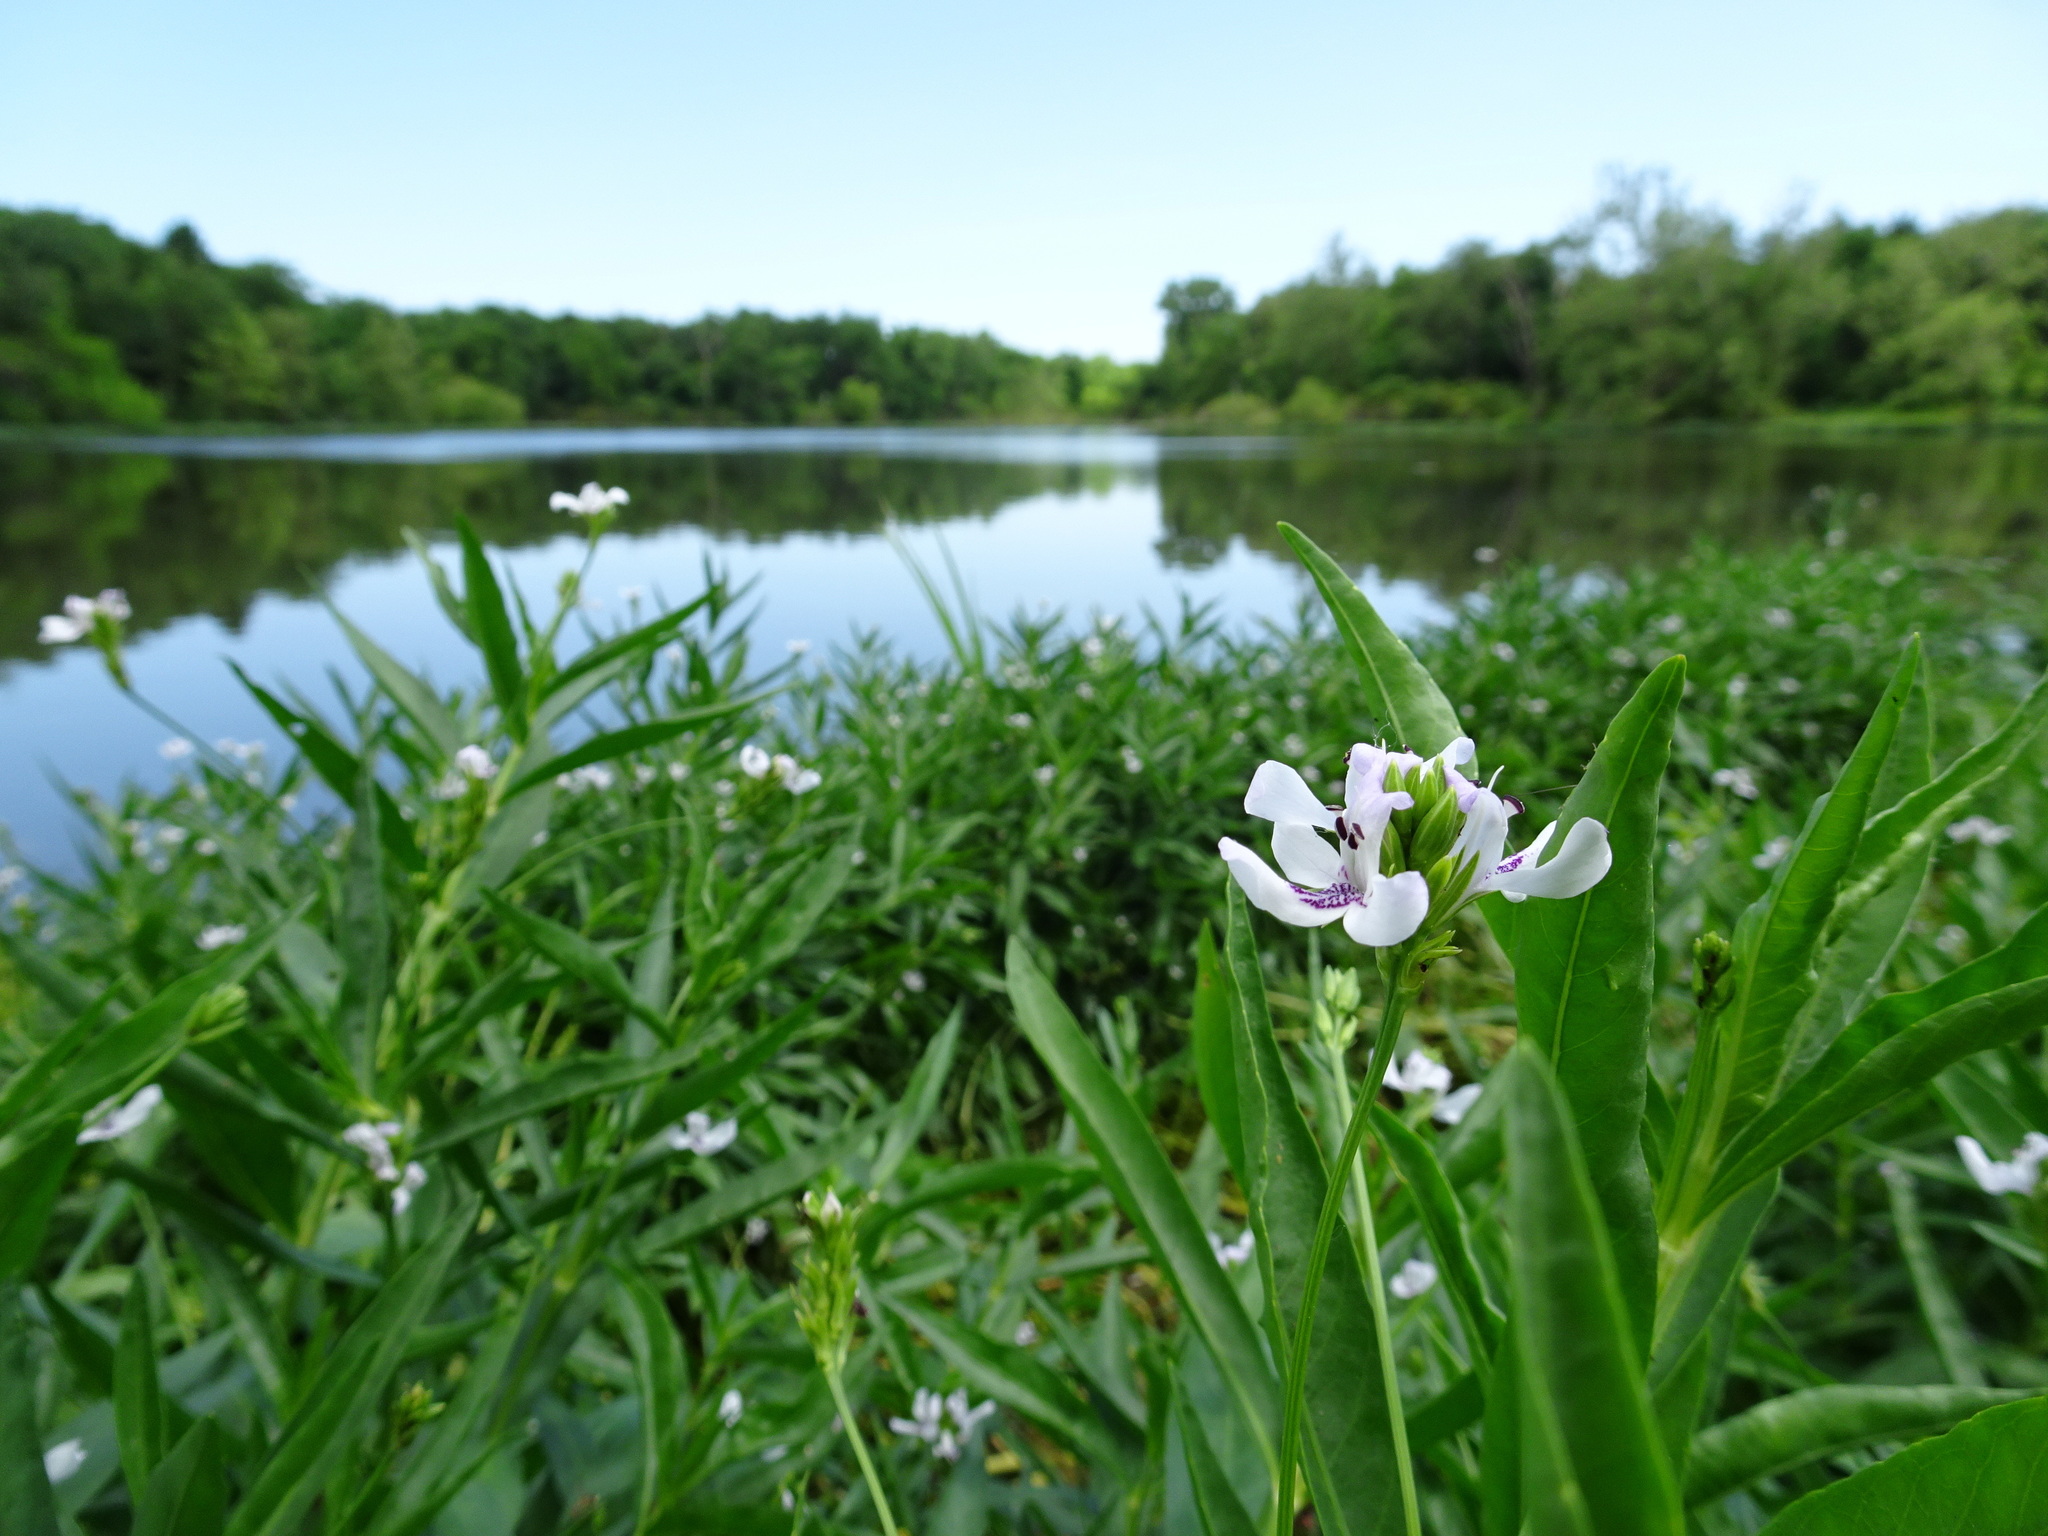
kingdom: Plantae
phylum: Tracheophyta
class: Magnoliopsida
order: Lamiales
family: Acanthaceae
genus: Dianthera
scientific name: Dianthera americana
